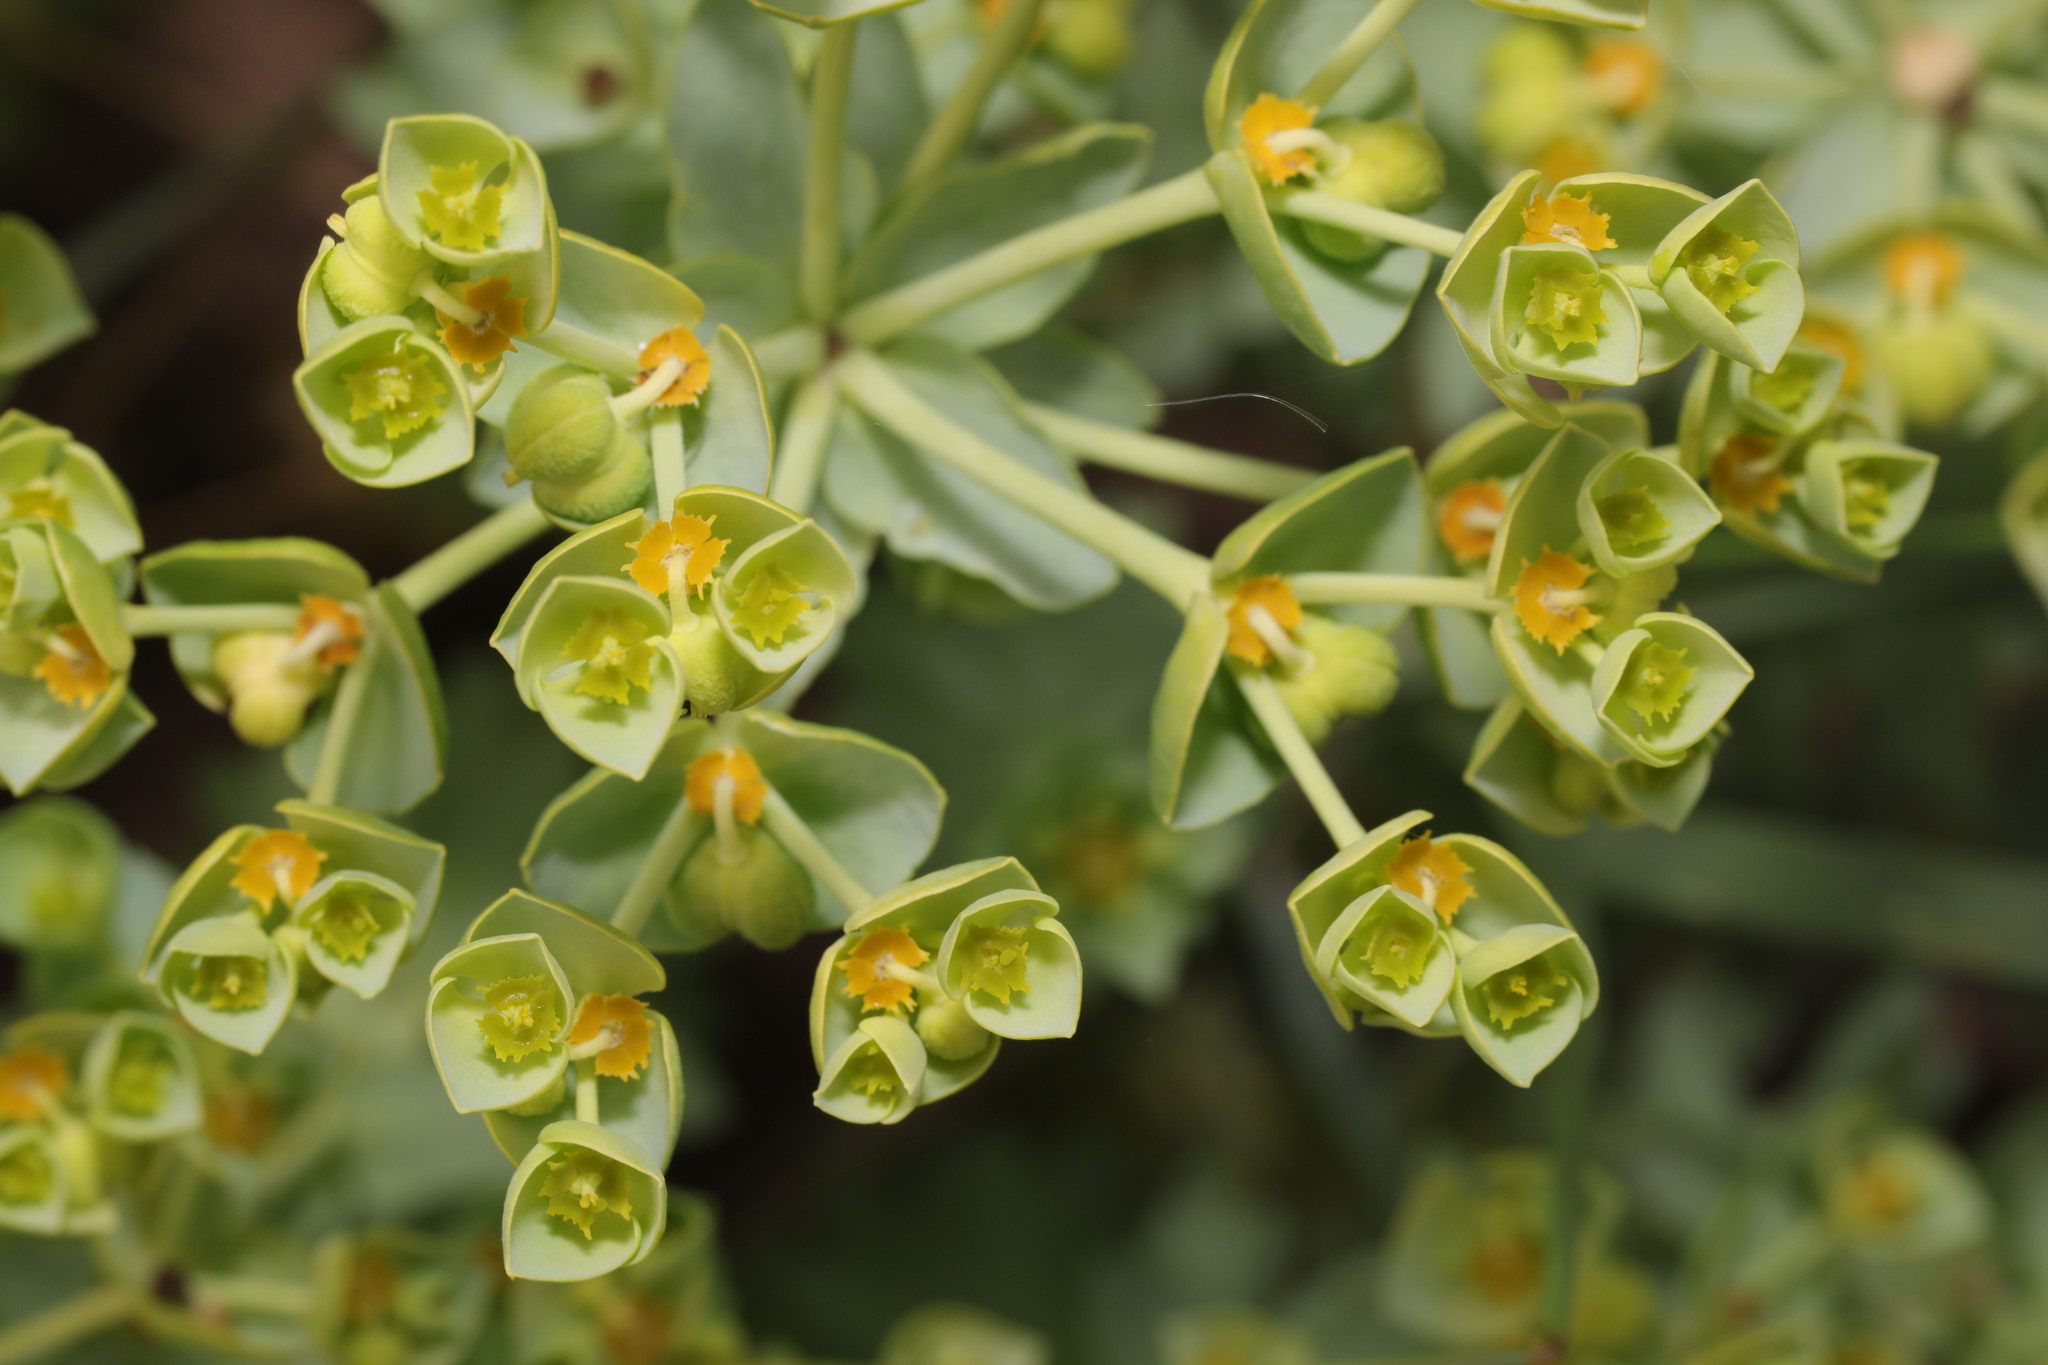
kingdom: Plantae
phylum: Tracheophyta
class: Magnoliopsida
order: Malpighiales
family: Euphorbiaceae
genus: Euphorbia
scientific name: Euphorbia paralias
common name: Sea spurge
